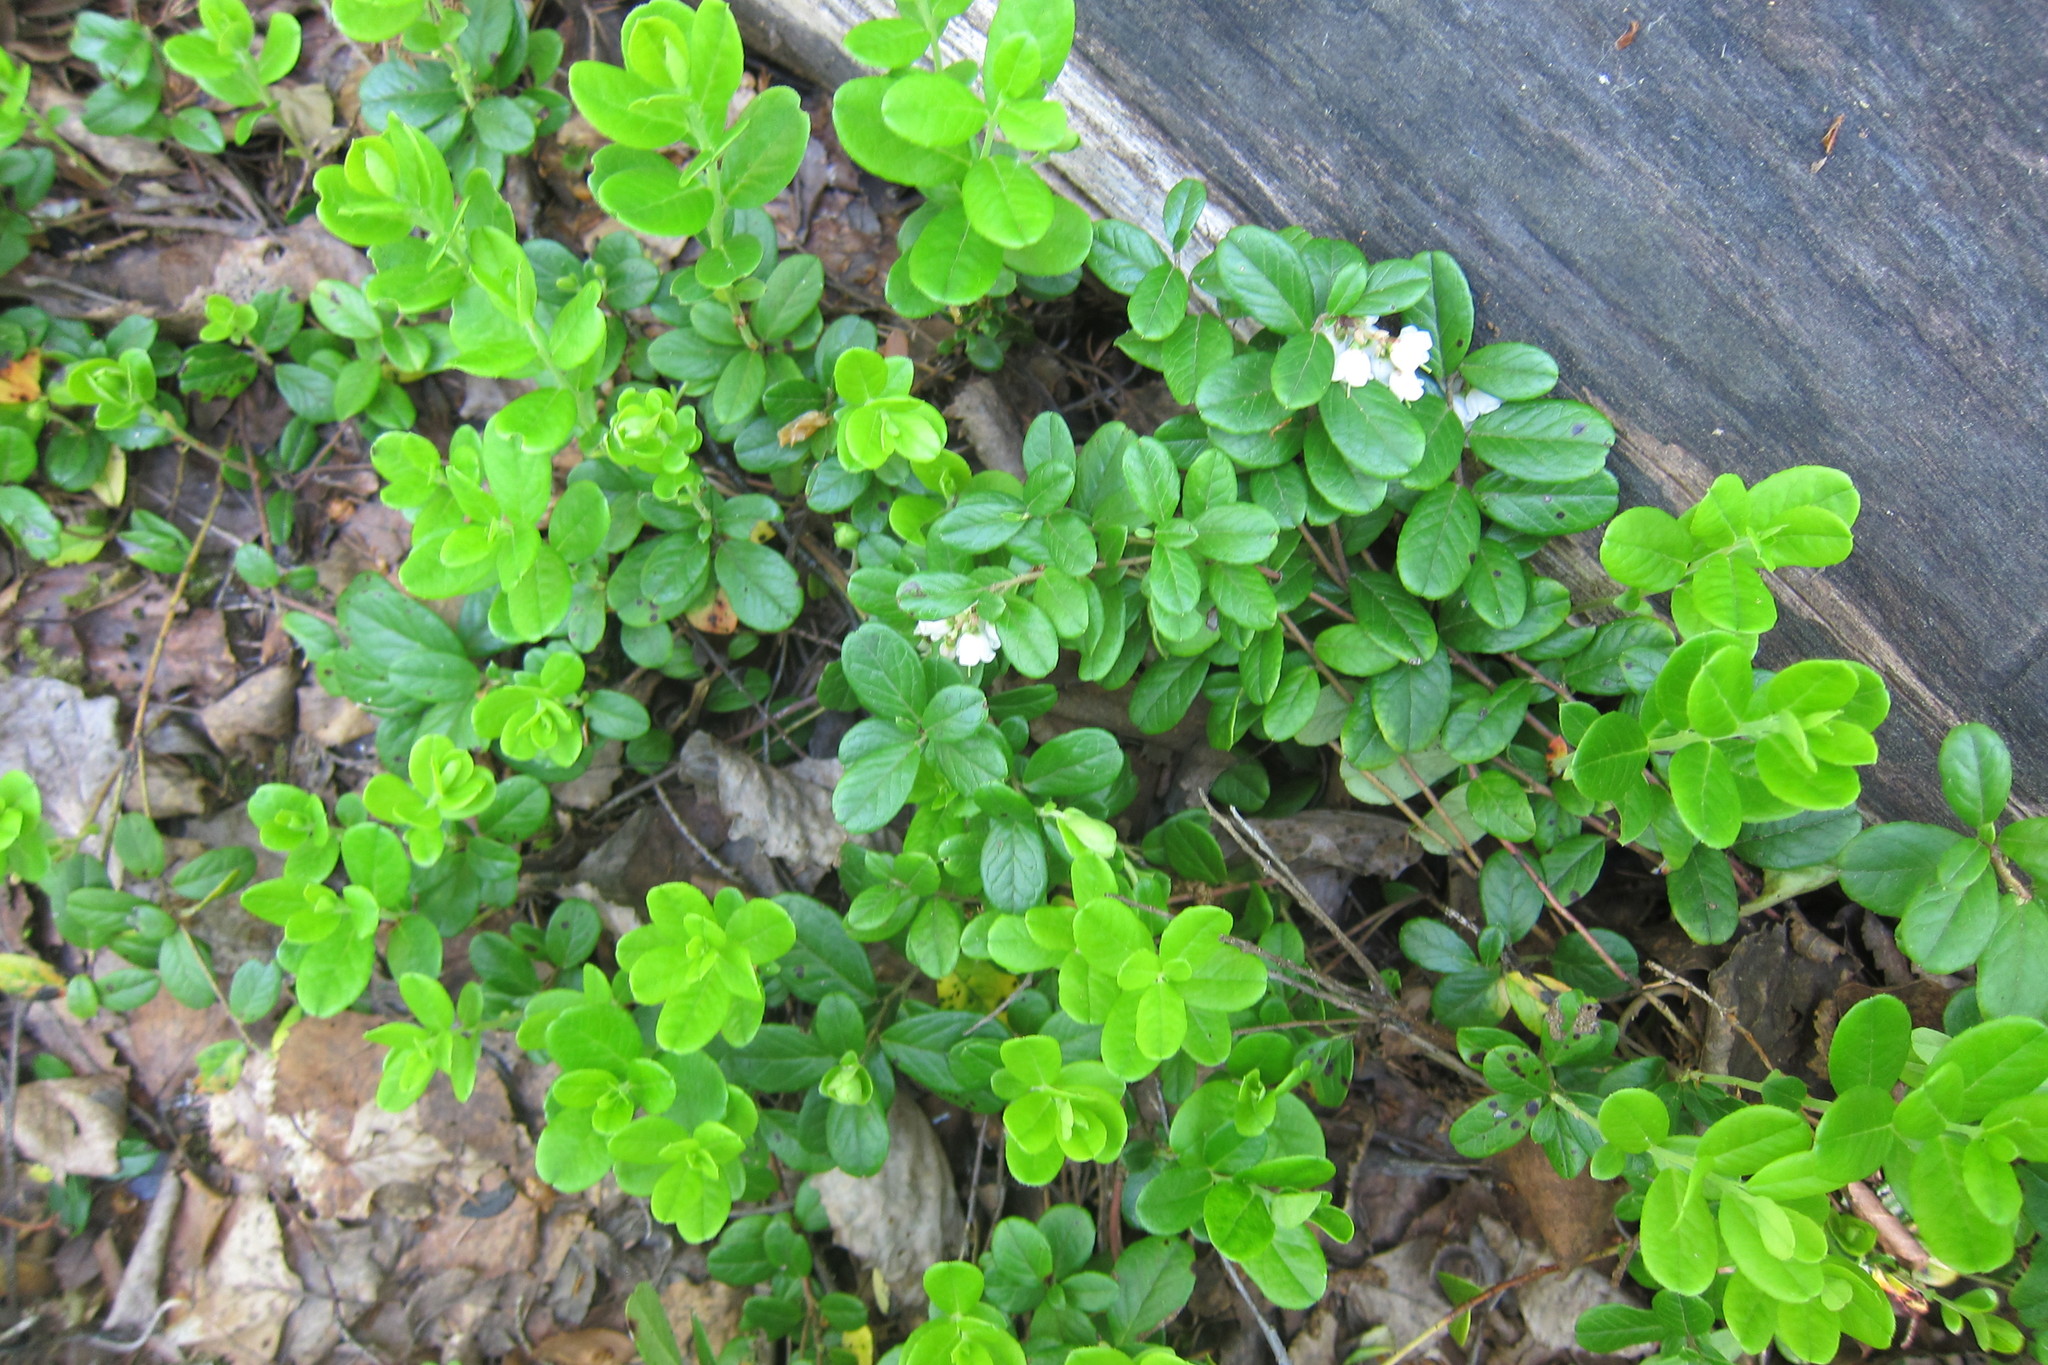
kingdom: Plantae
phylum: Tracheophyta
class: Magnoliopsida
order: Ericales
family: Ericaceae
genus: Vaccinium
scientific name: Vaccinium vitis-idaea
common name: Cowberry
